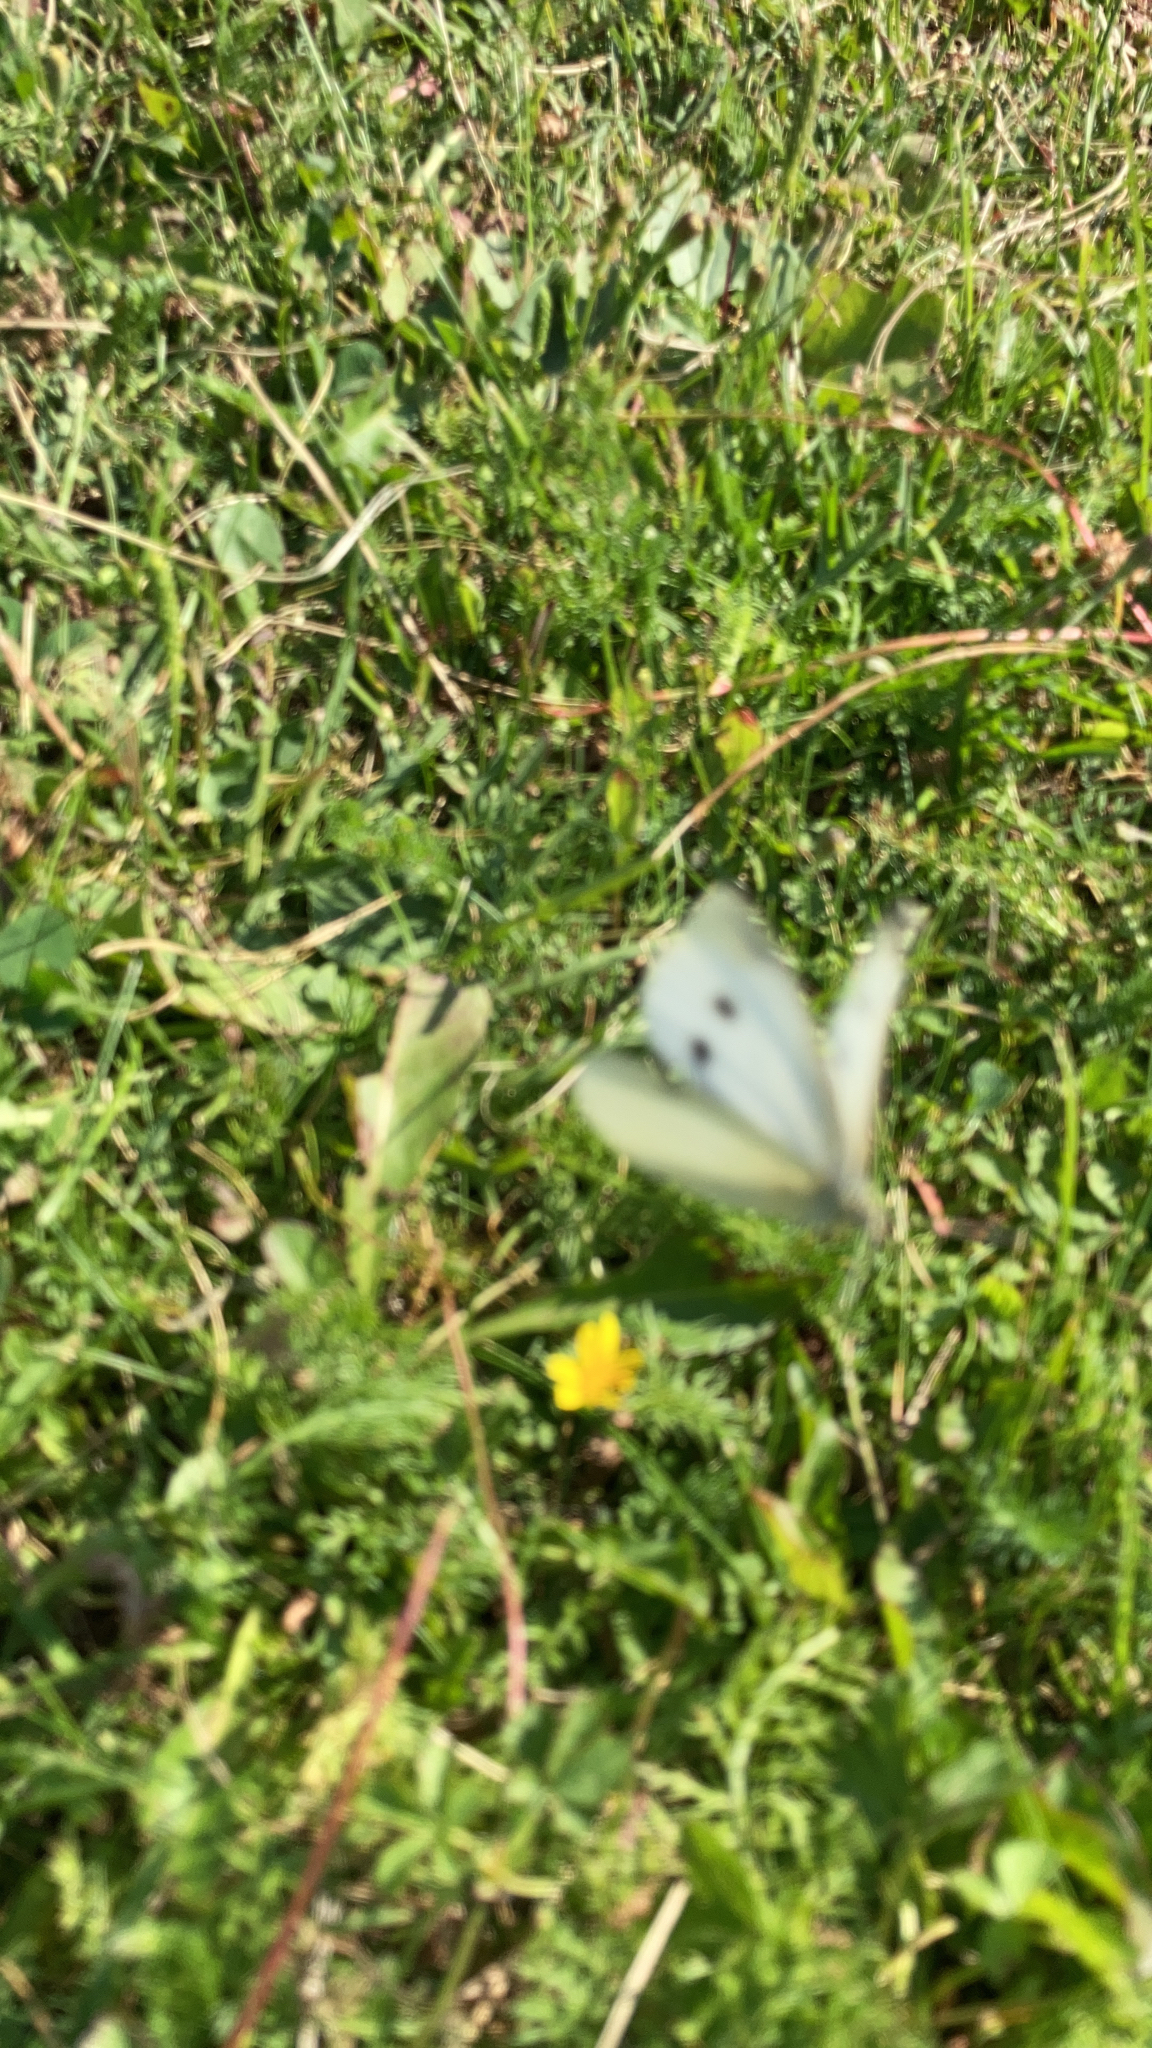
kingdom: Animalia
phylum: Arthropoda
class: Insecta
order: Lepidoptera
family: Pieridae
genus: Pieris
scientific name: Pieris rapae
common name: Small white
